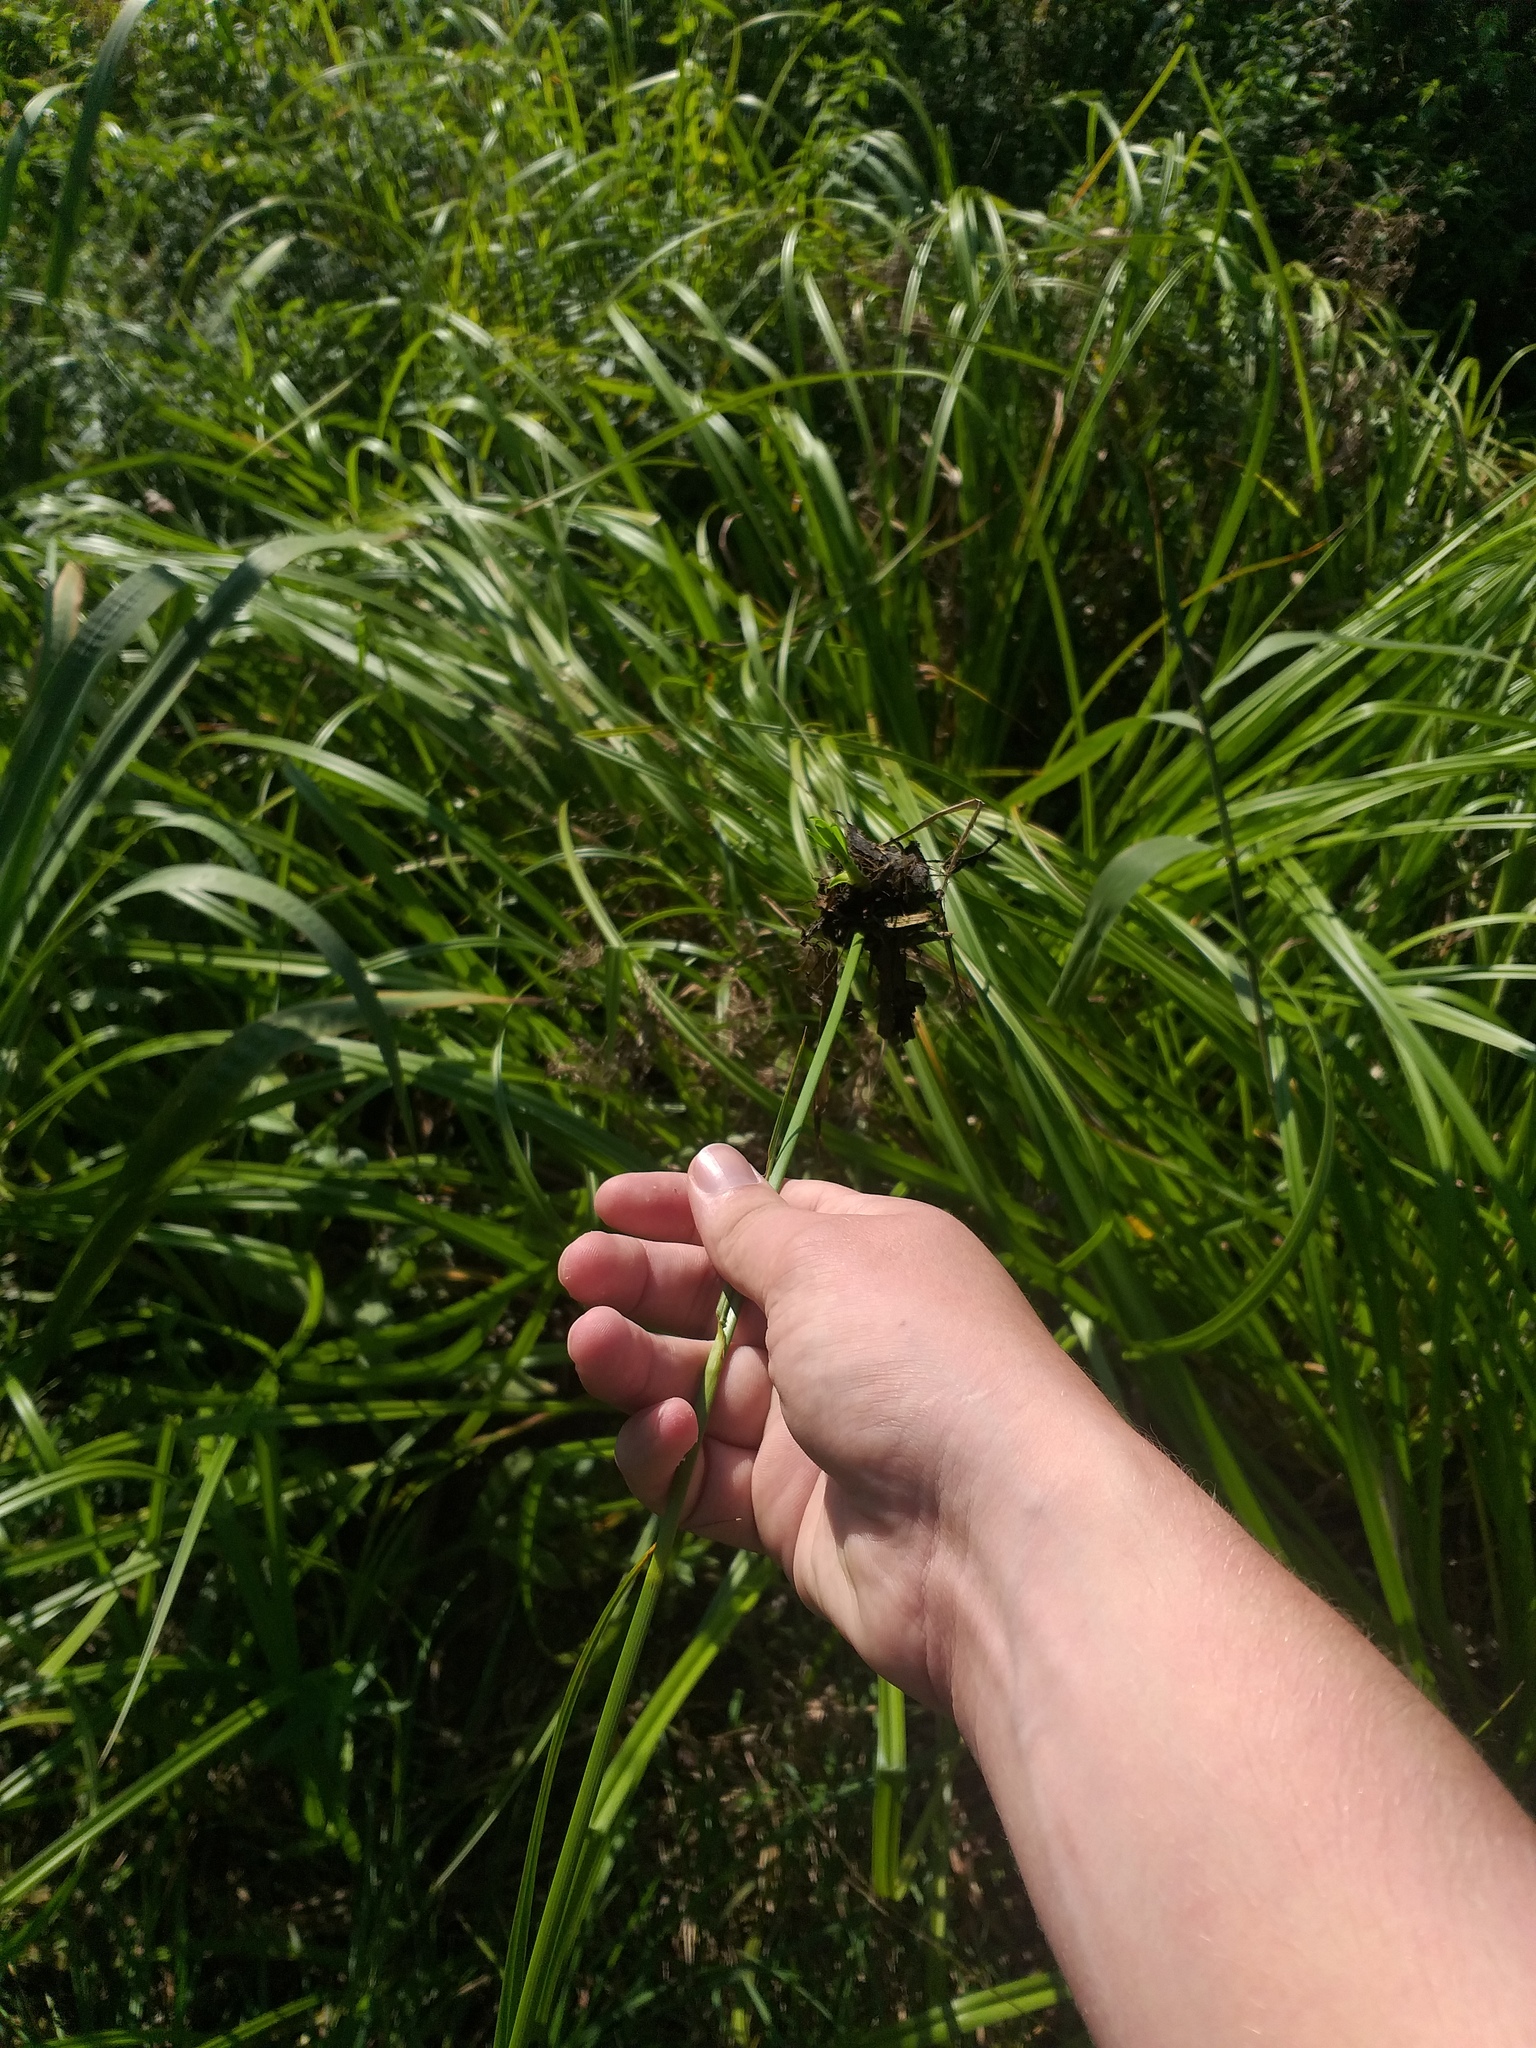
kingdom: Plantae
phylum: Tracheophyta
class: Liliopsida
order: Poales
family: Cyperaceae
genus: Scirpus
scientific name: Scirpus radicans
